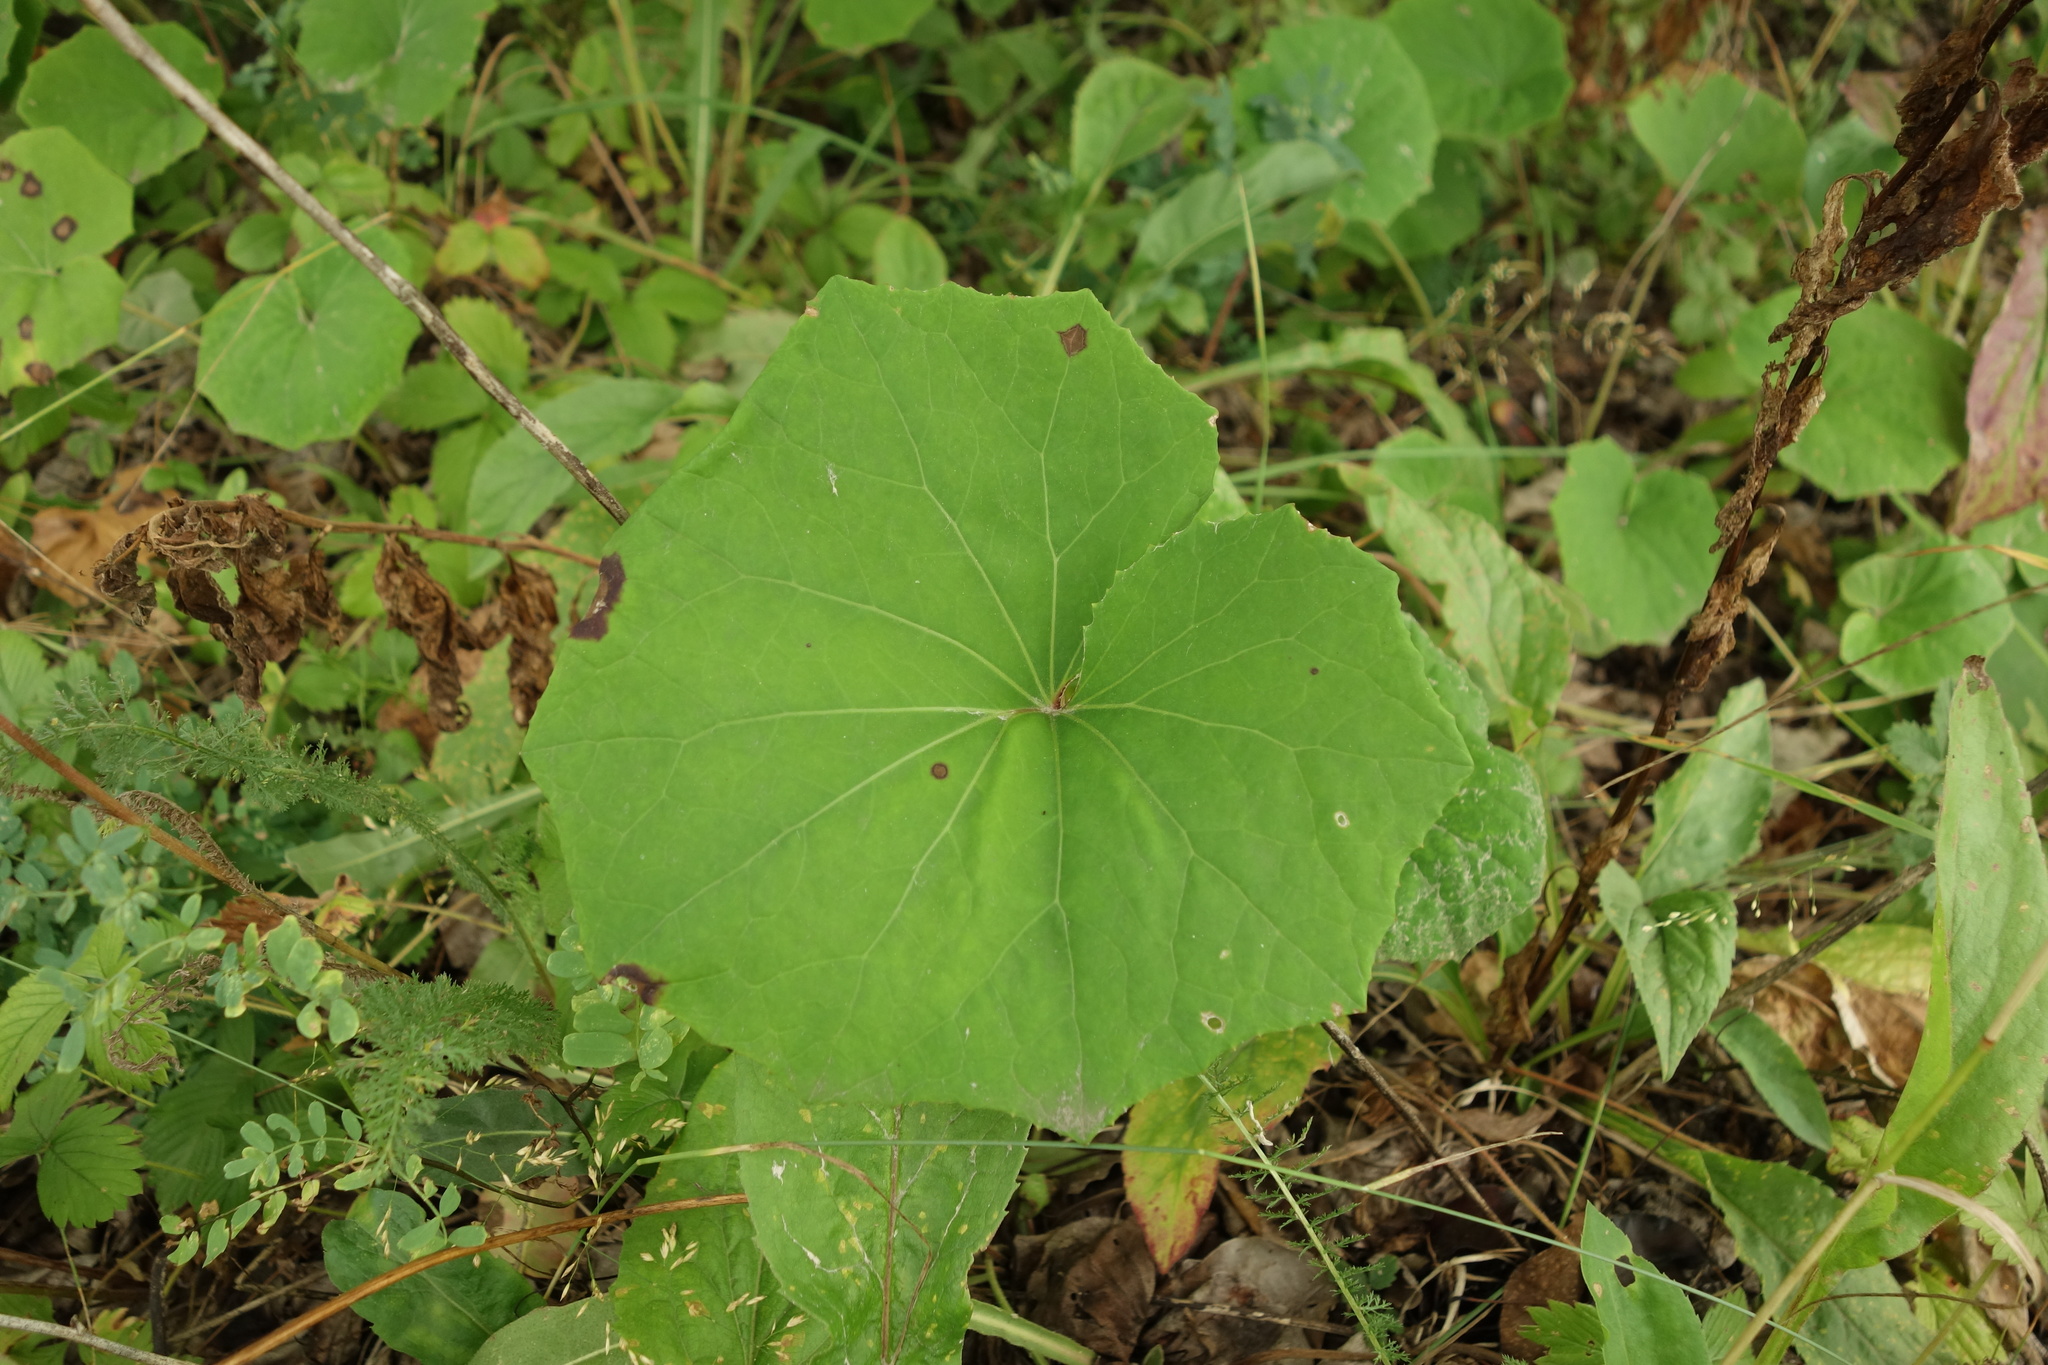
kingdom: Plantae
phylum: Tracheophyta
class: Magnoliopsida
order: Asterales
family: Asteraceae
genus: Tussilago
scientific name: Tussilago farfara
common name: Coltsfoot
